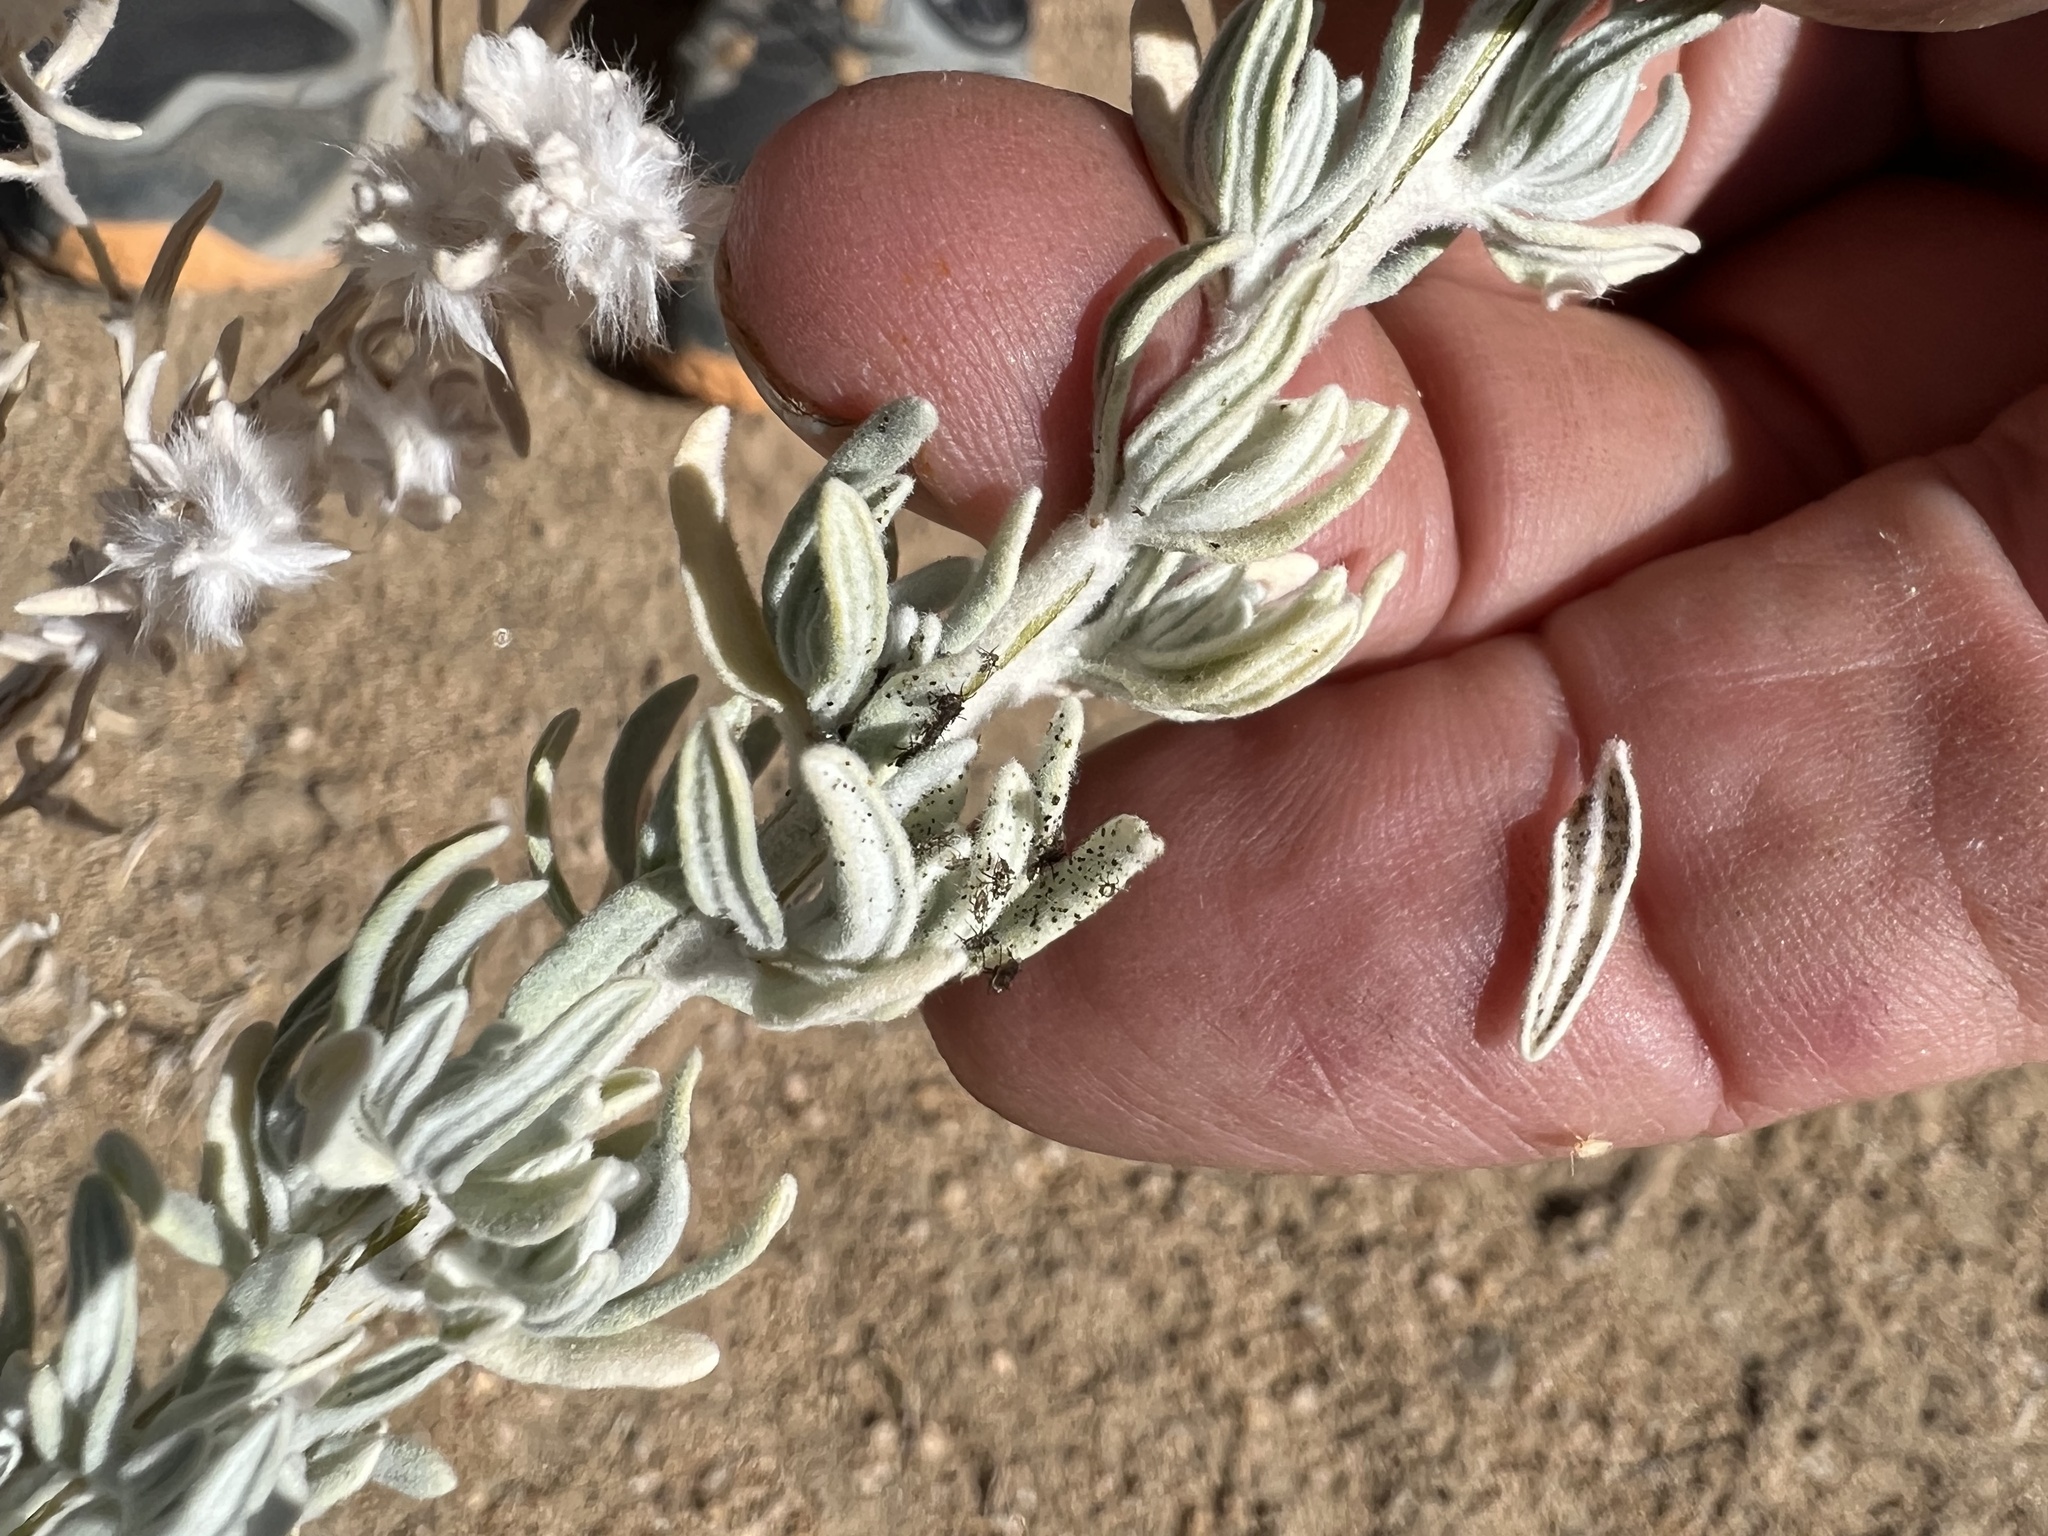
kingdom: Plantae
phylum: Tracheophyta
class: Magnoliopsida
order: Caryophyllales
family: Amaranthaceae
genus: Krascheninnikovia
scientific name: Krascheninnikovia lanata
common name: Winterfat
